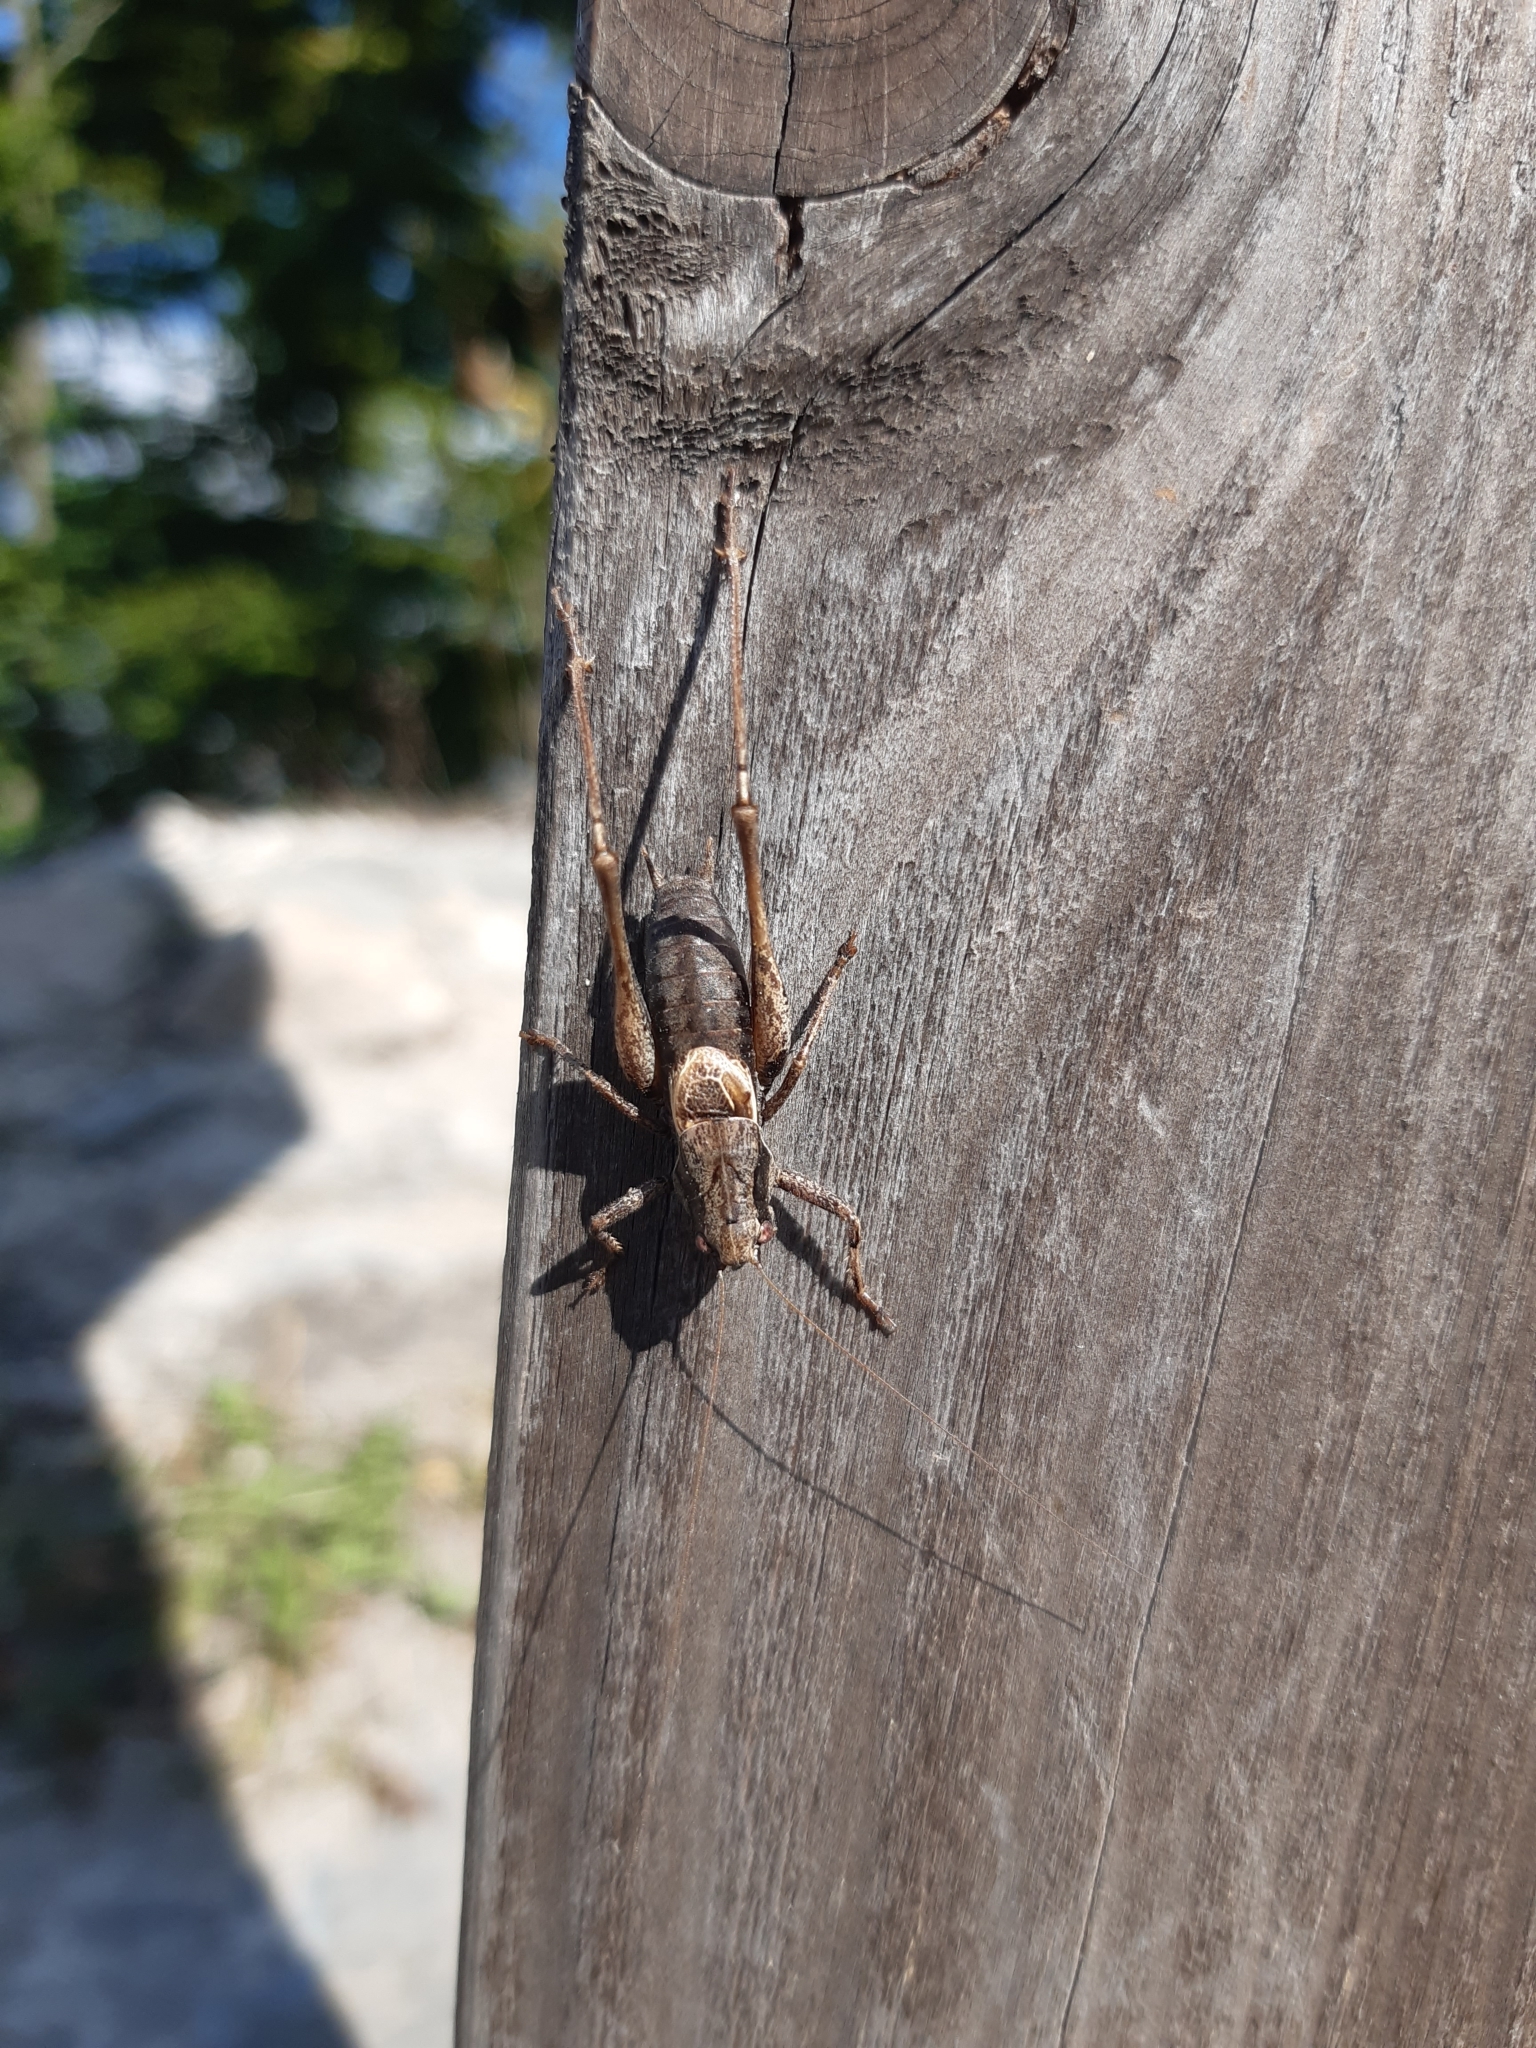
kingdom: Animalia
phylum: Arthropoda
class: Insecta
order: Orthoptera
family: Tettigoniidae
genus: Pholidoptera
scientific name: Pholidoptera griseoaptera
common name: Dark bush-cricket
